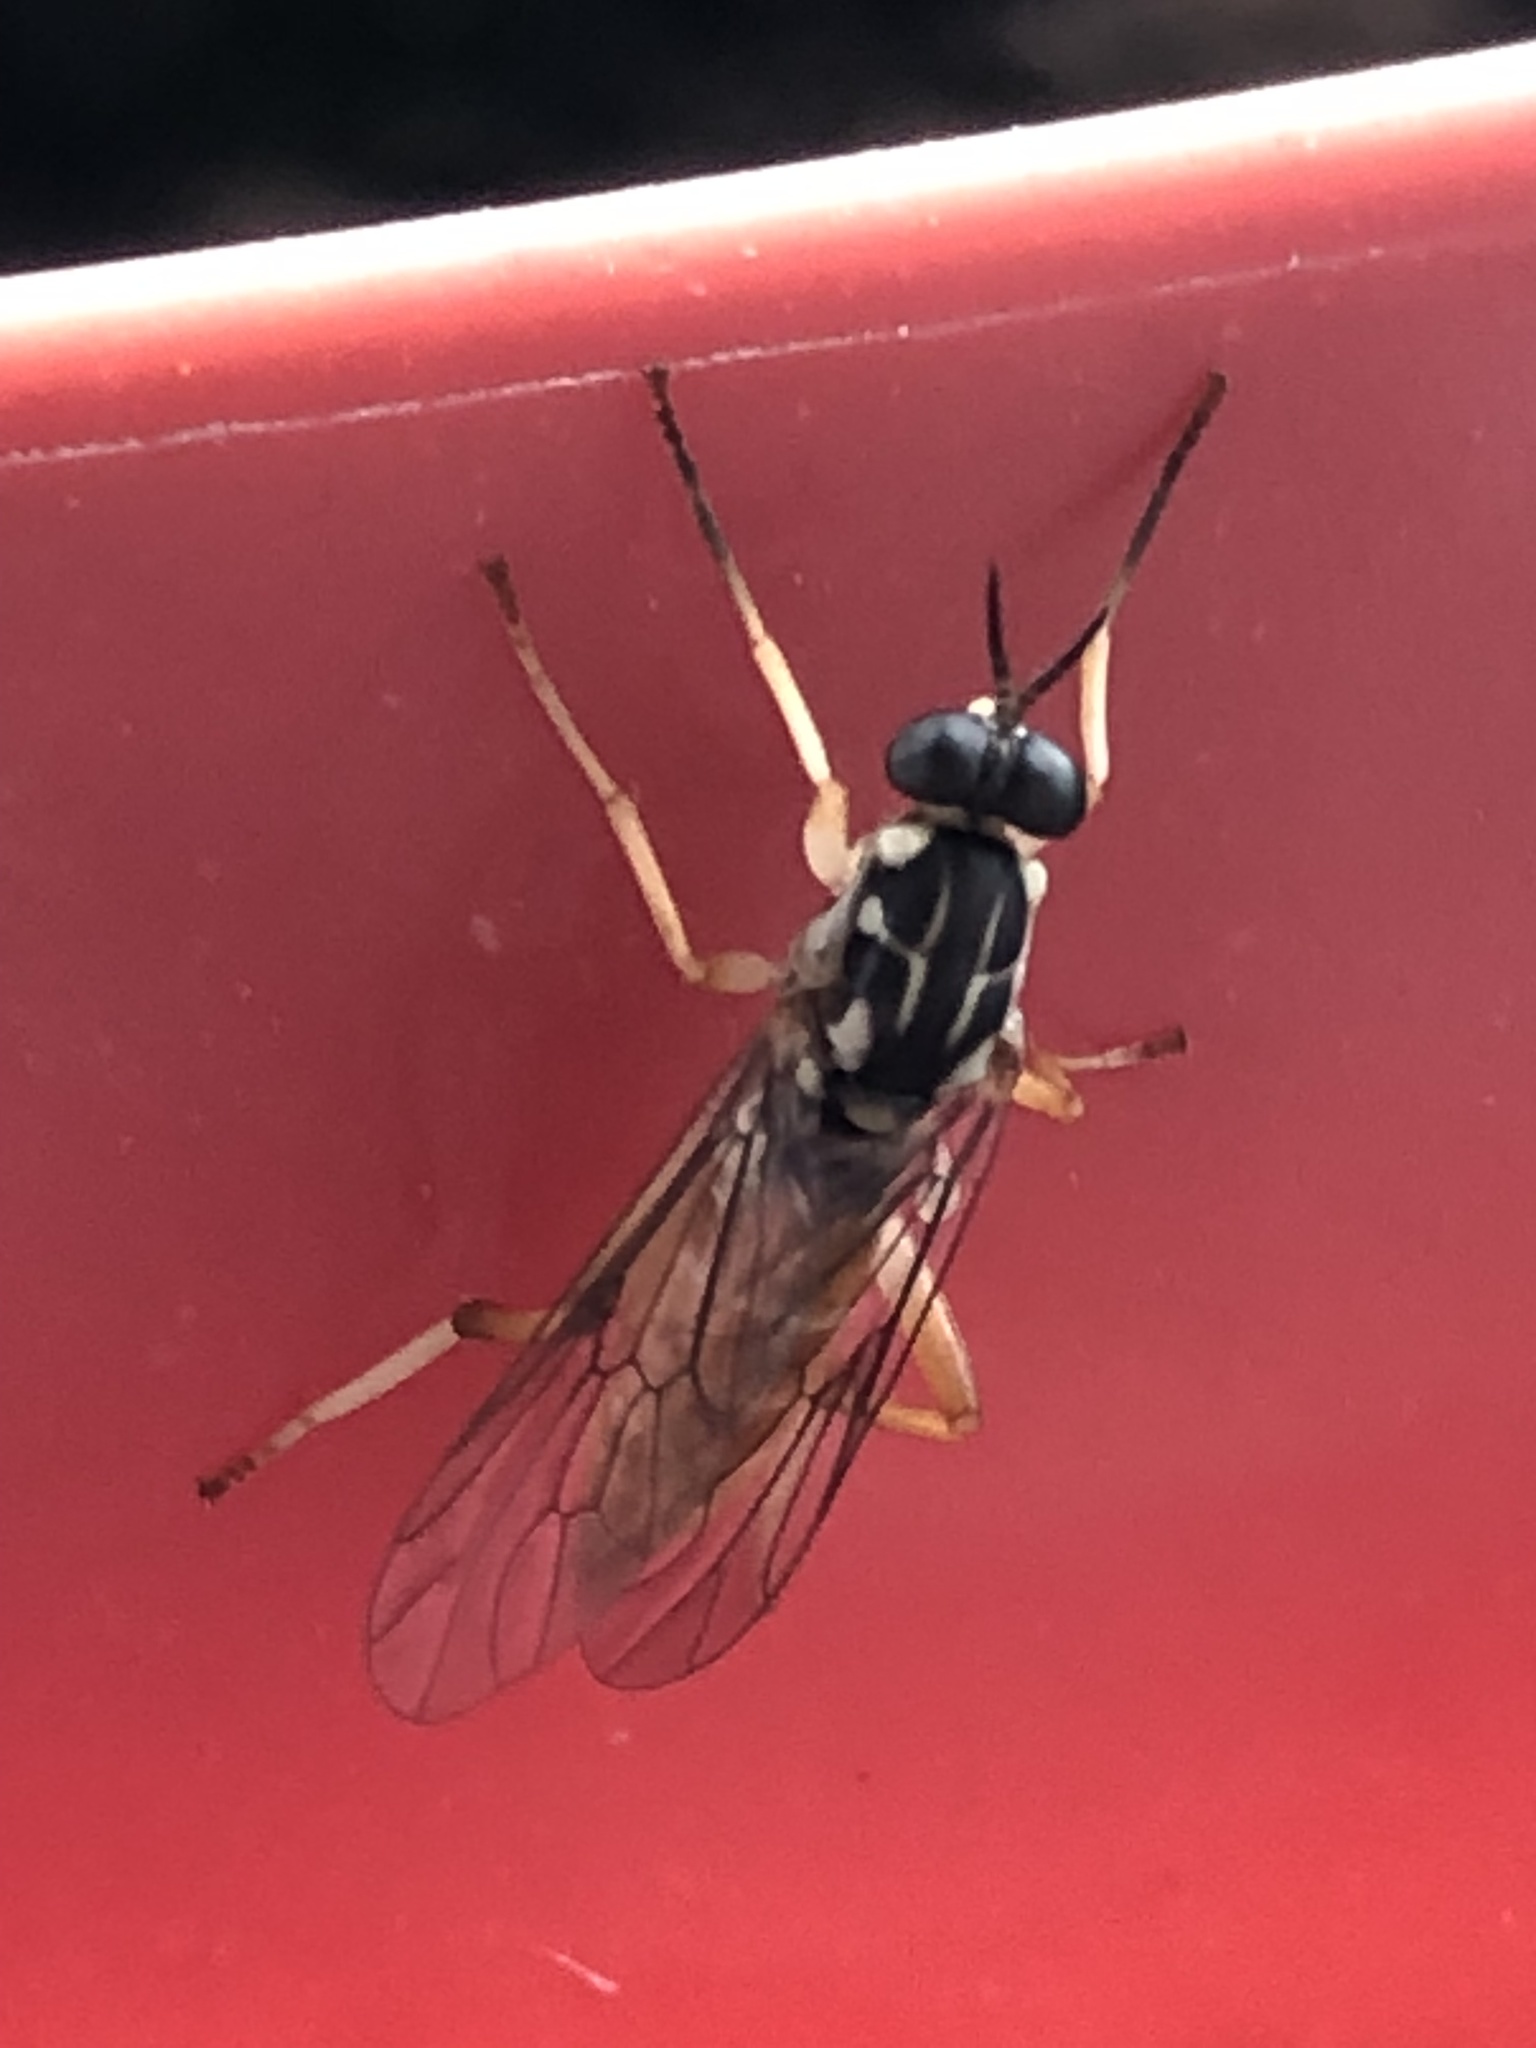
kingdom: Animalia
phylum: Arthropoda
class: Insecta
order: Diptera
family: Xylomyidae
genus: Xylomya
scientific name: Xylomya americana
